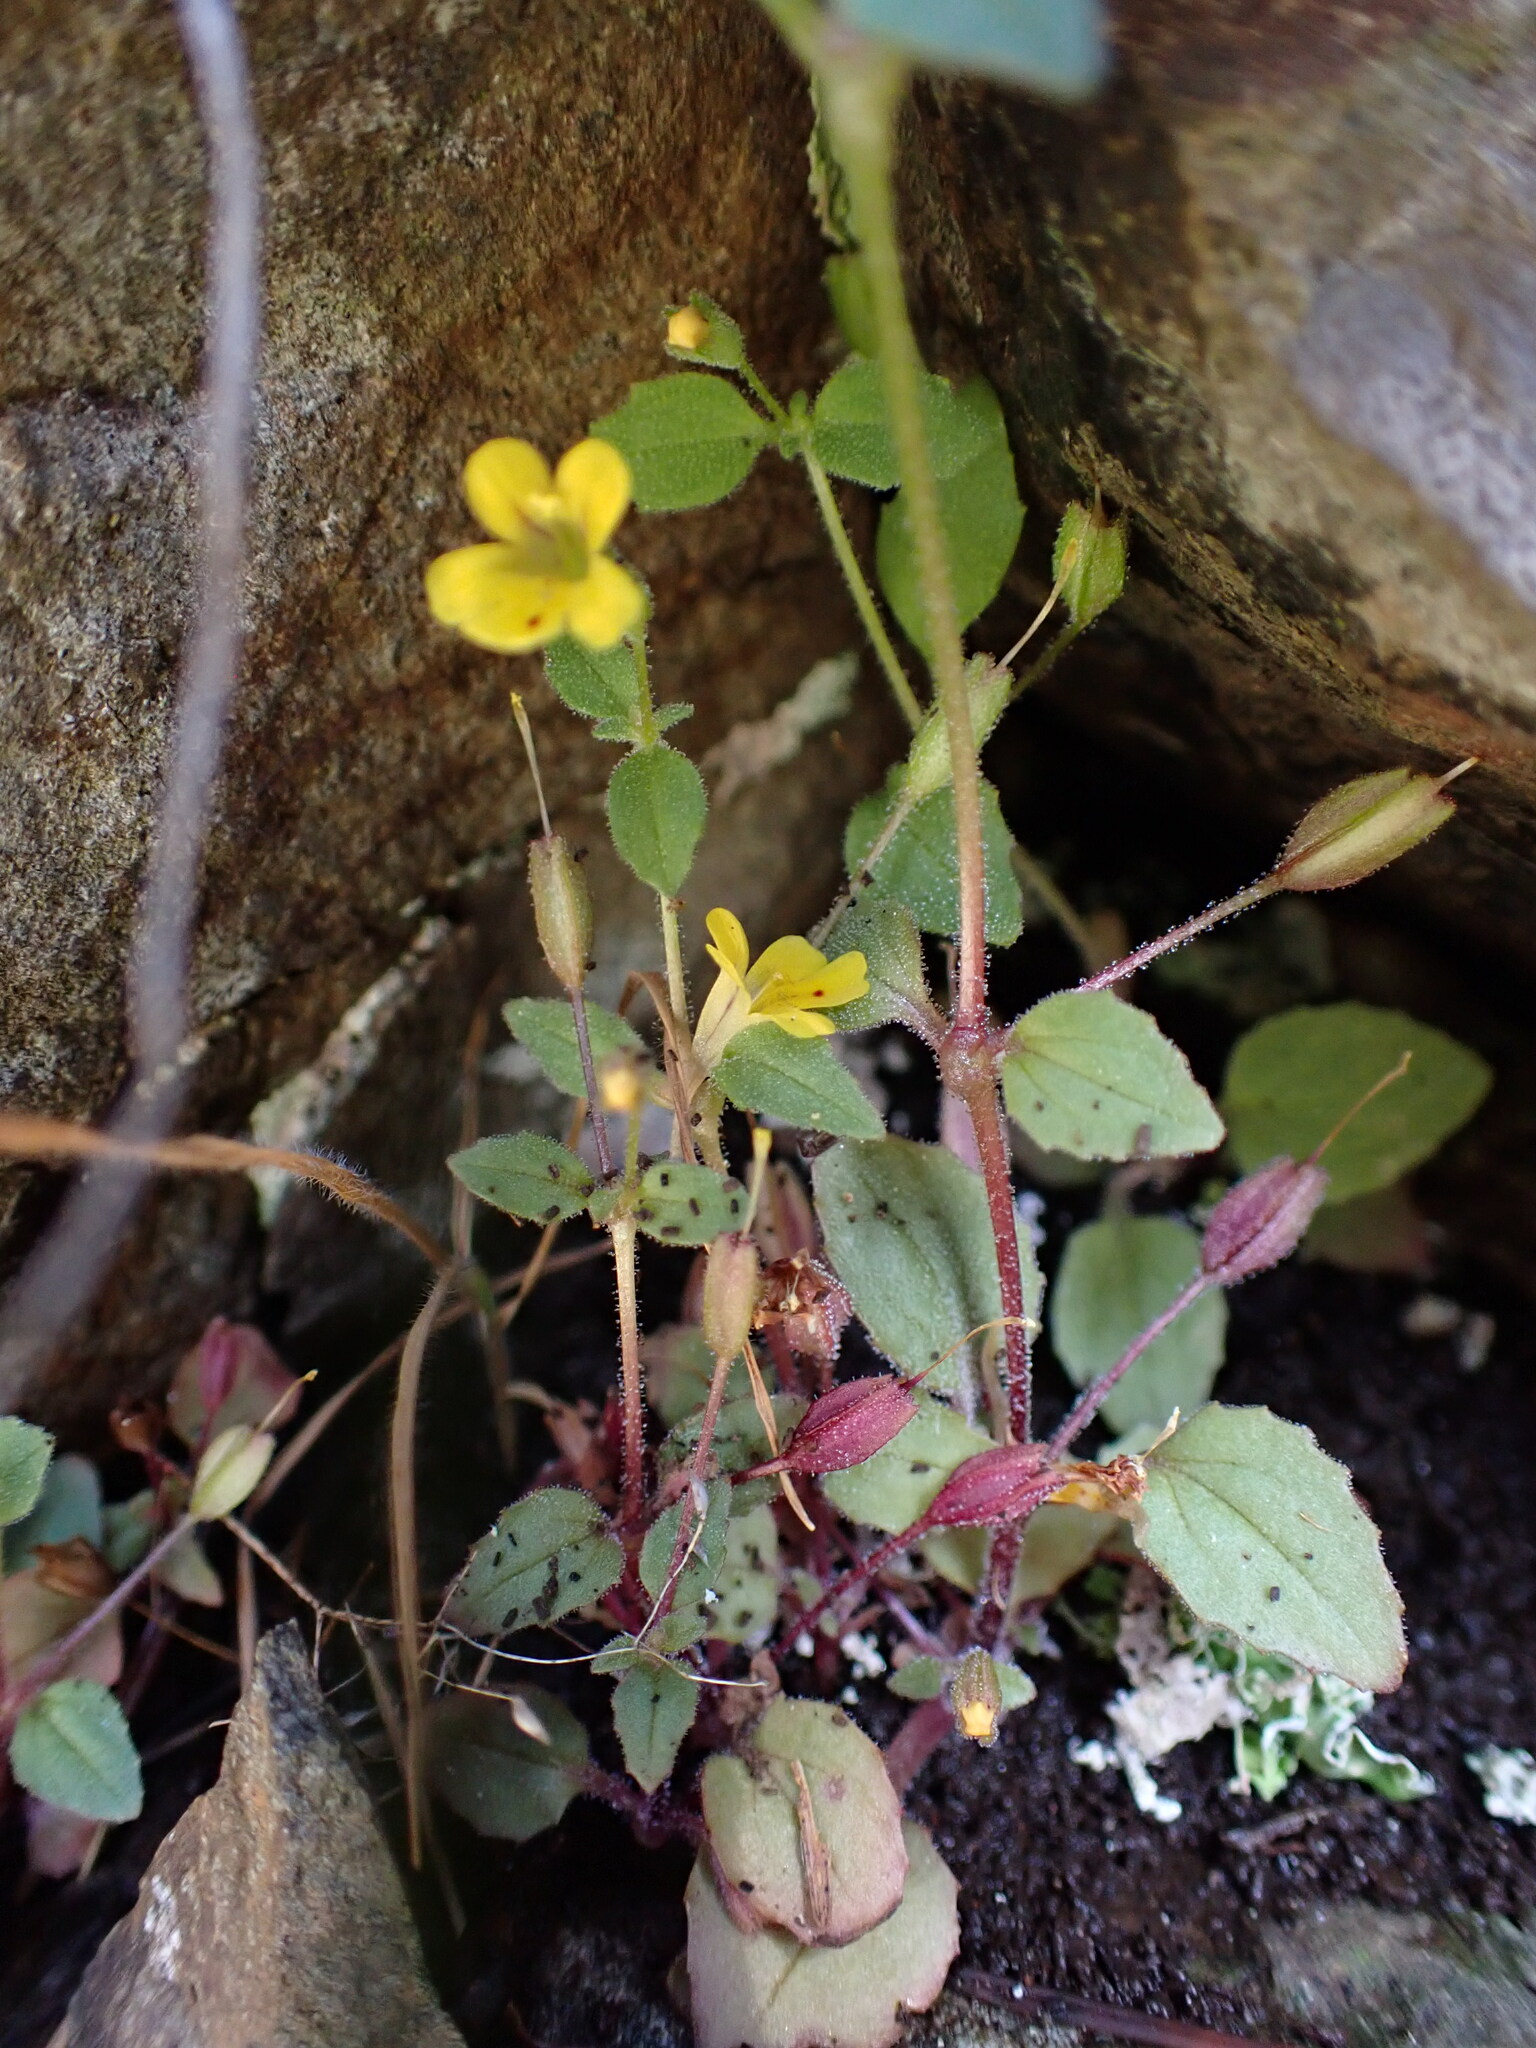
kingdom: Plantae
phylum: Tracheophyta
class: Magnoliopsida
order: Lamiales
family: Phrymaceae
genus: Erythranthe
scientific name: Erythranthe alsinoides
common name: Chickweed monkeyflower
